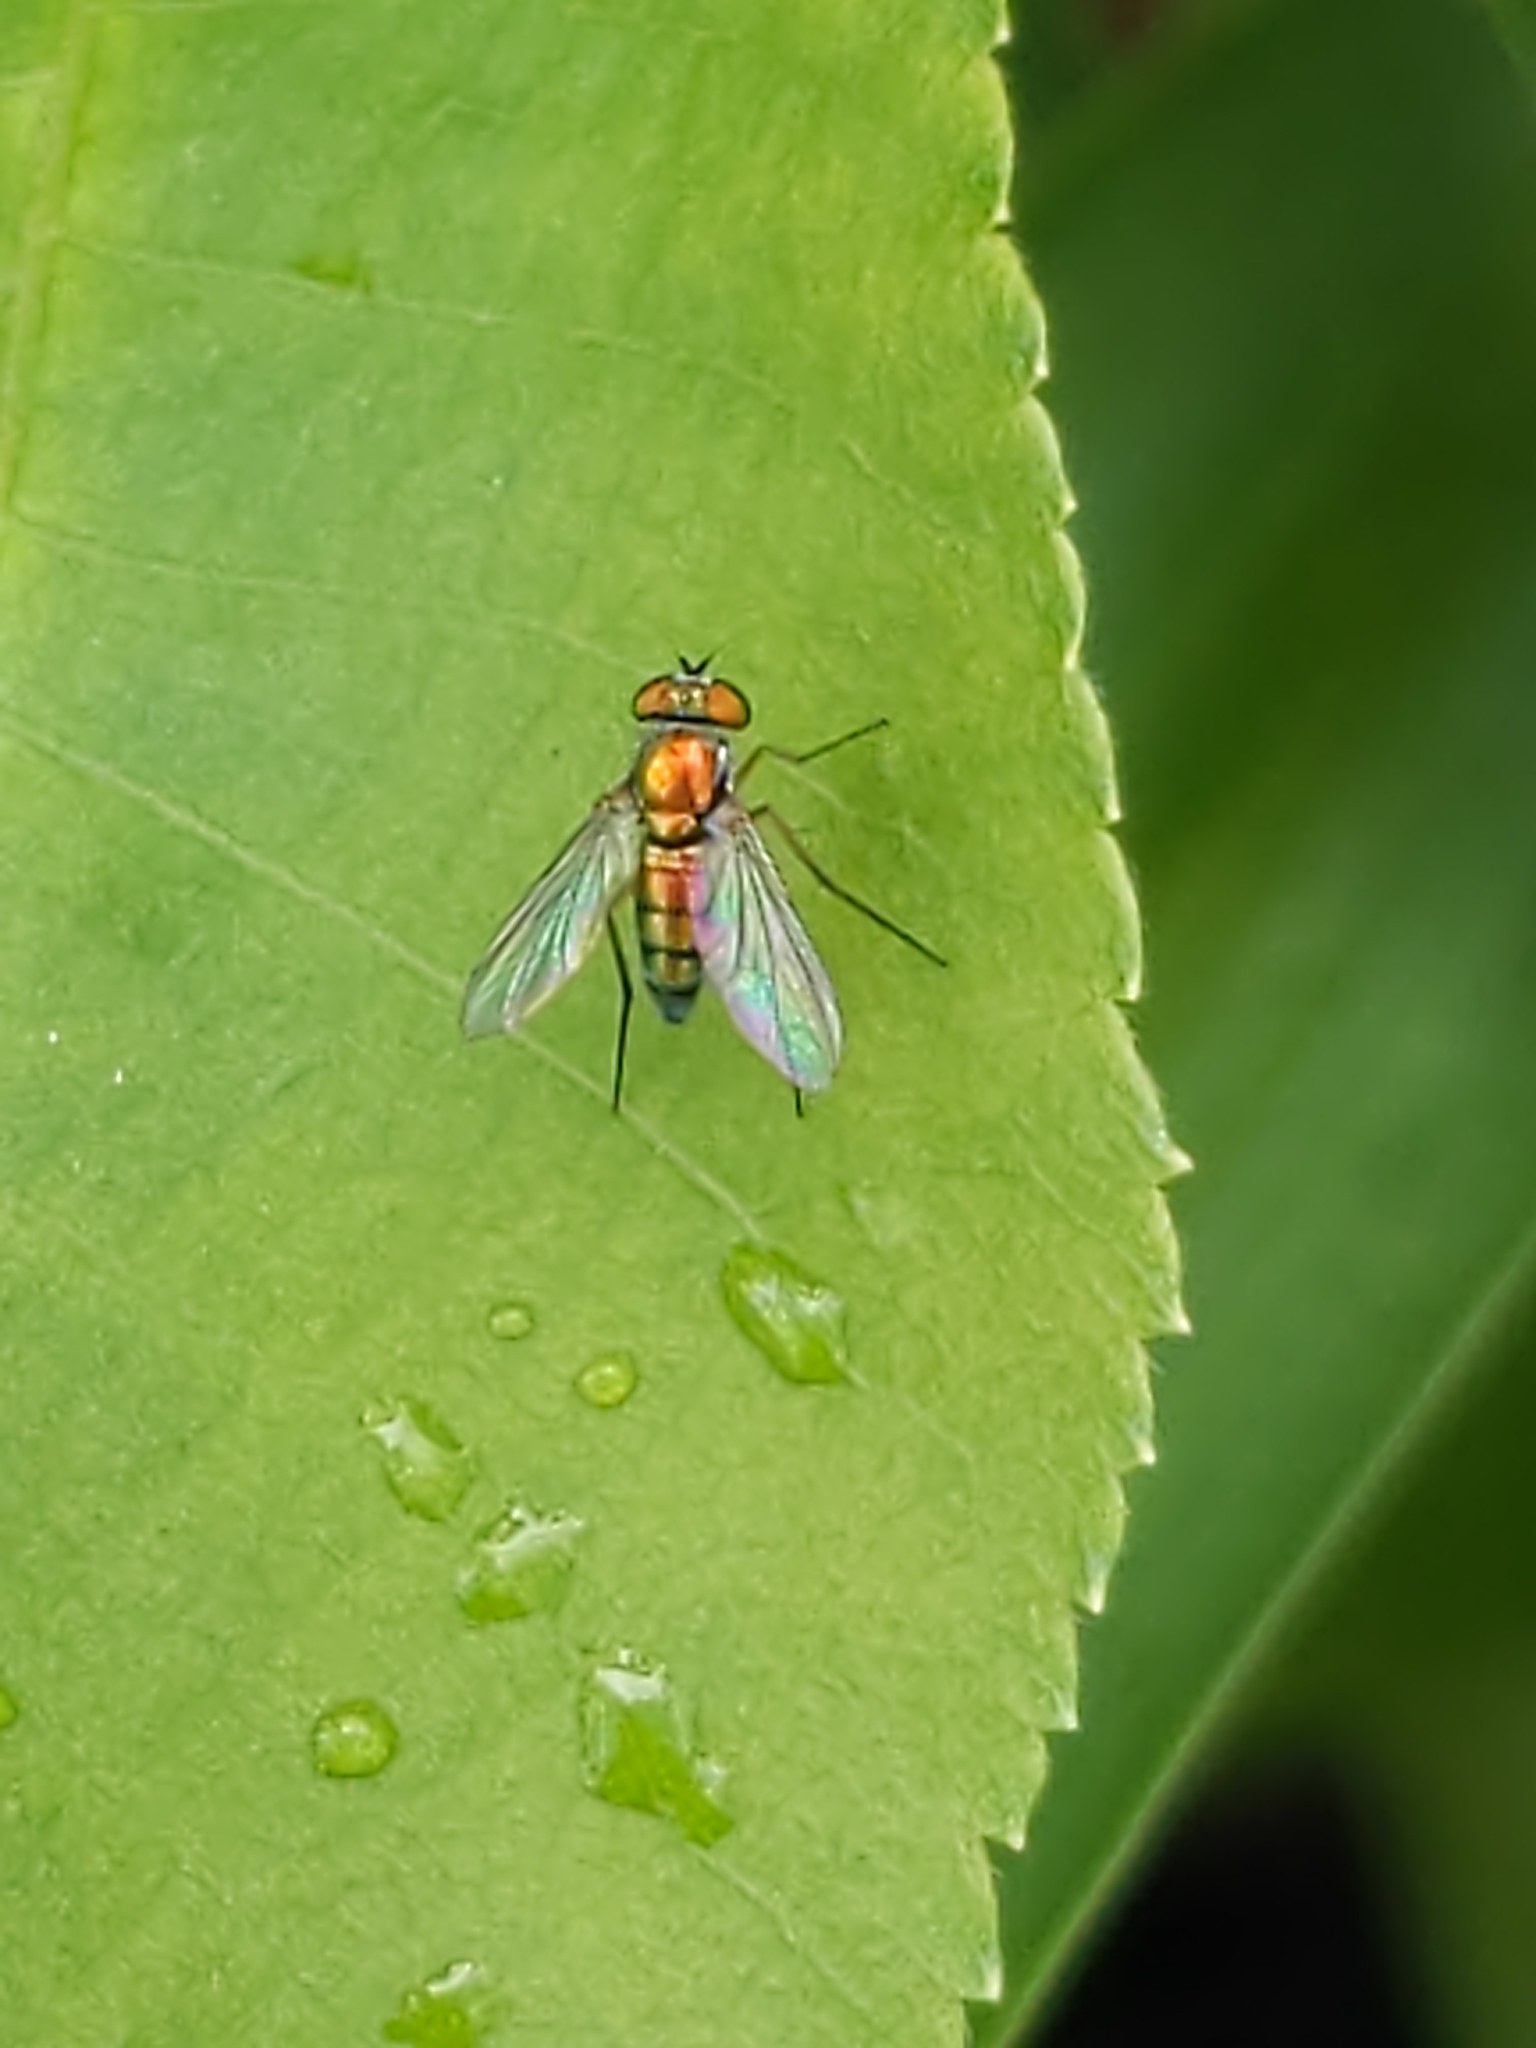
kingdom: Animalia
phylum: Arthropoda
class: Insecta
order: Diptera
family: Dolichopodidae
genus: Condylostylus
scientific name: Condylostylus
